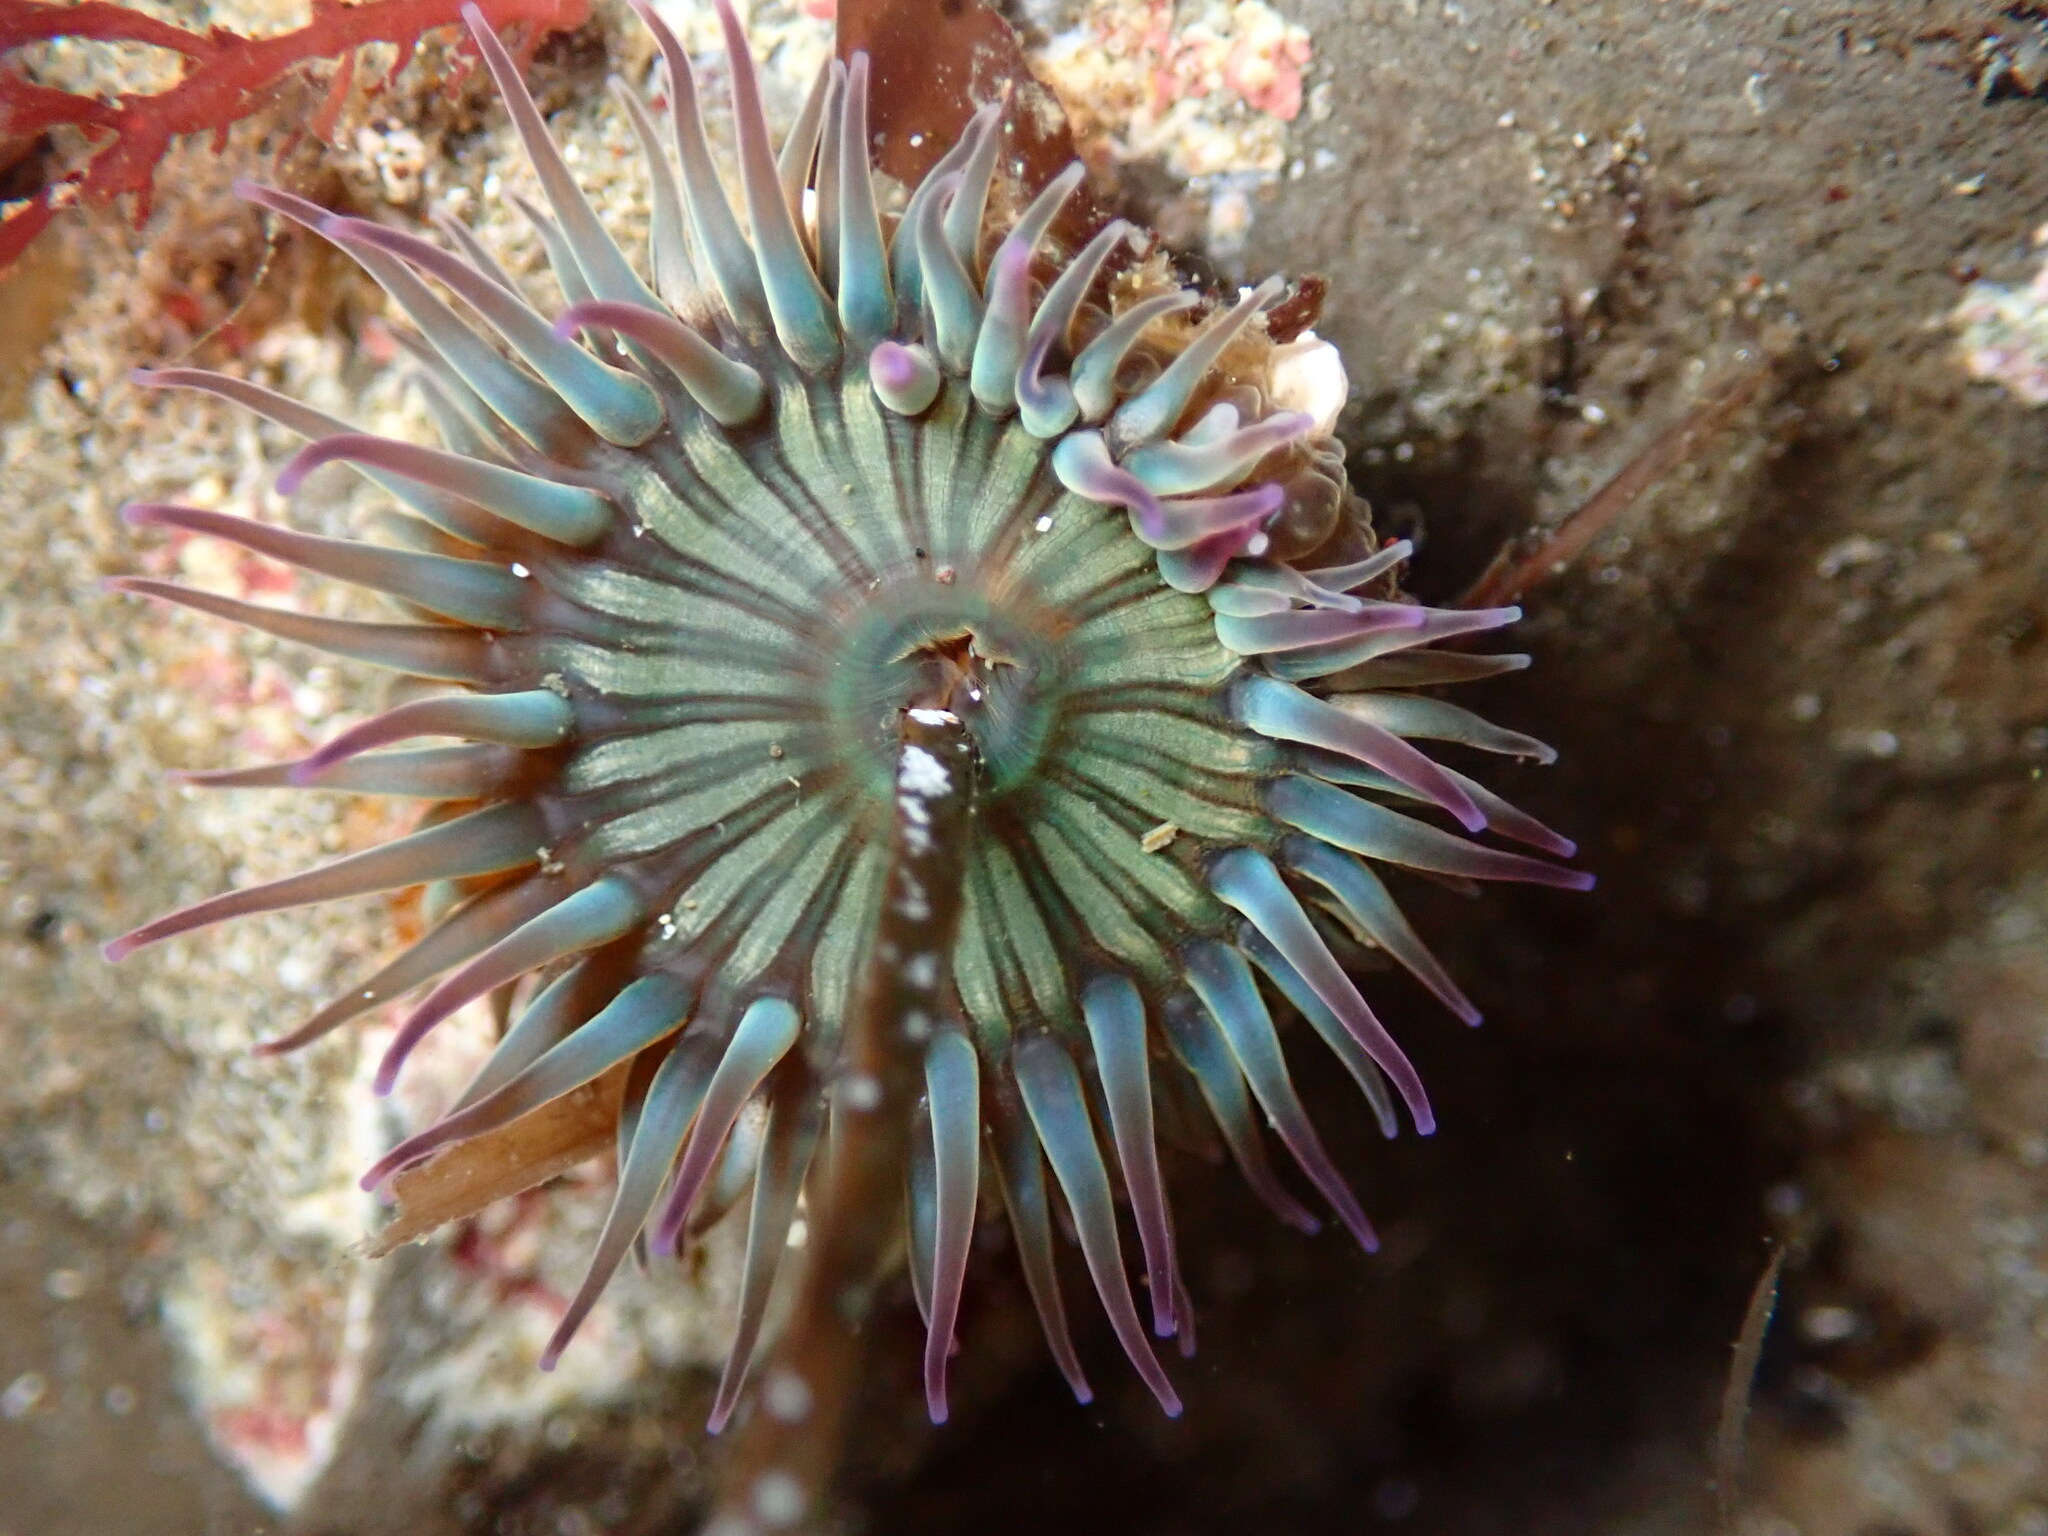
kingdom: Animalia
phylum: Cnidaria
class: Anthozoa
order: Actiniaria
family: Actiniidae
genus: Anthopleura
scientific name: Anthopleura sola
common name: Sun anemone
